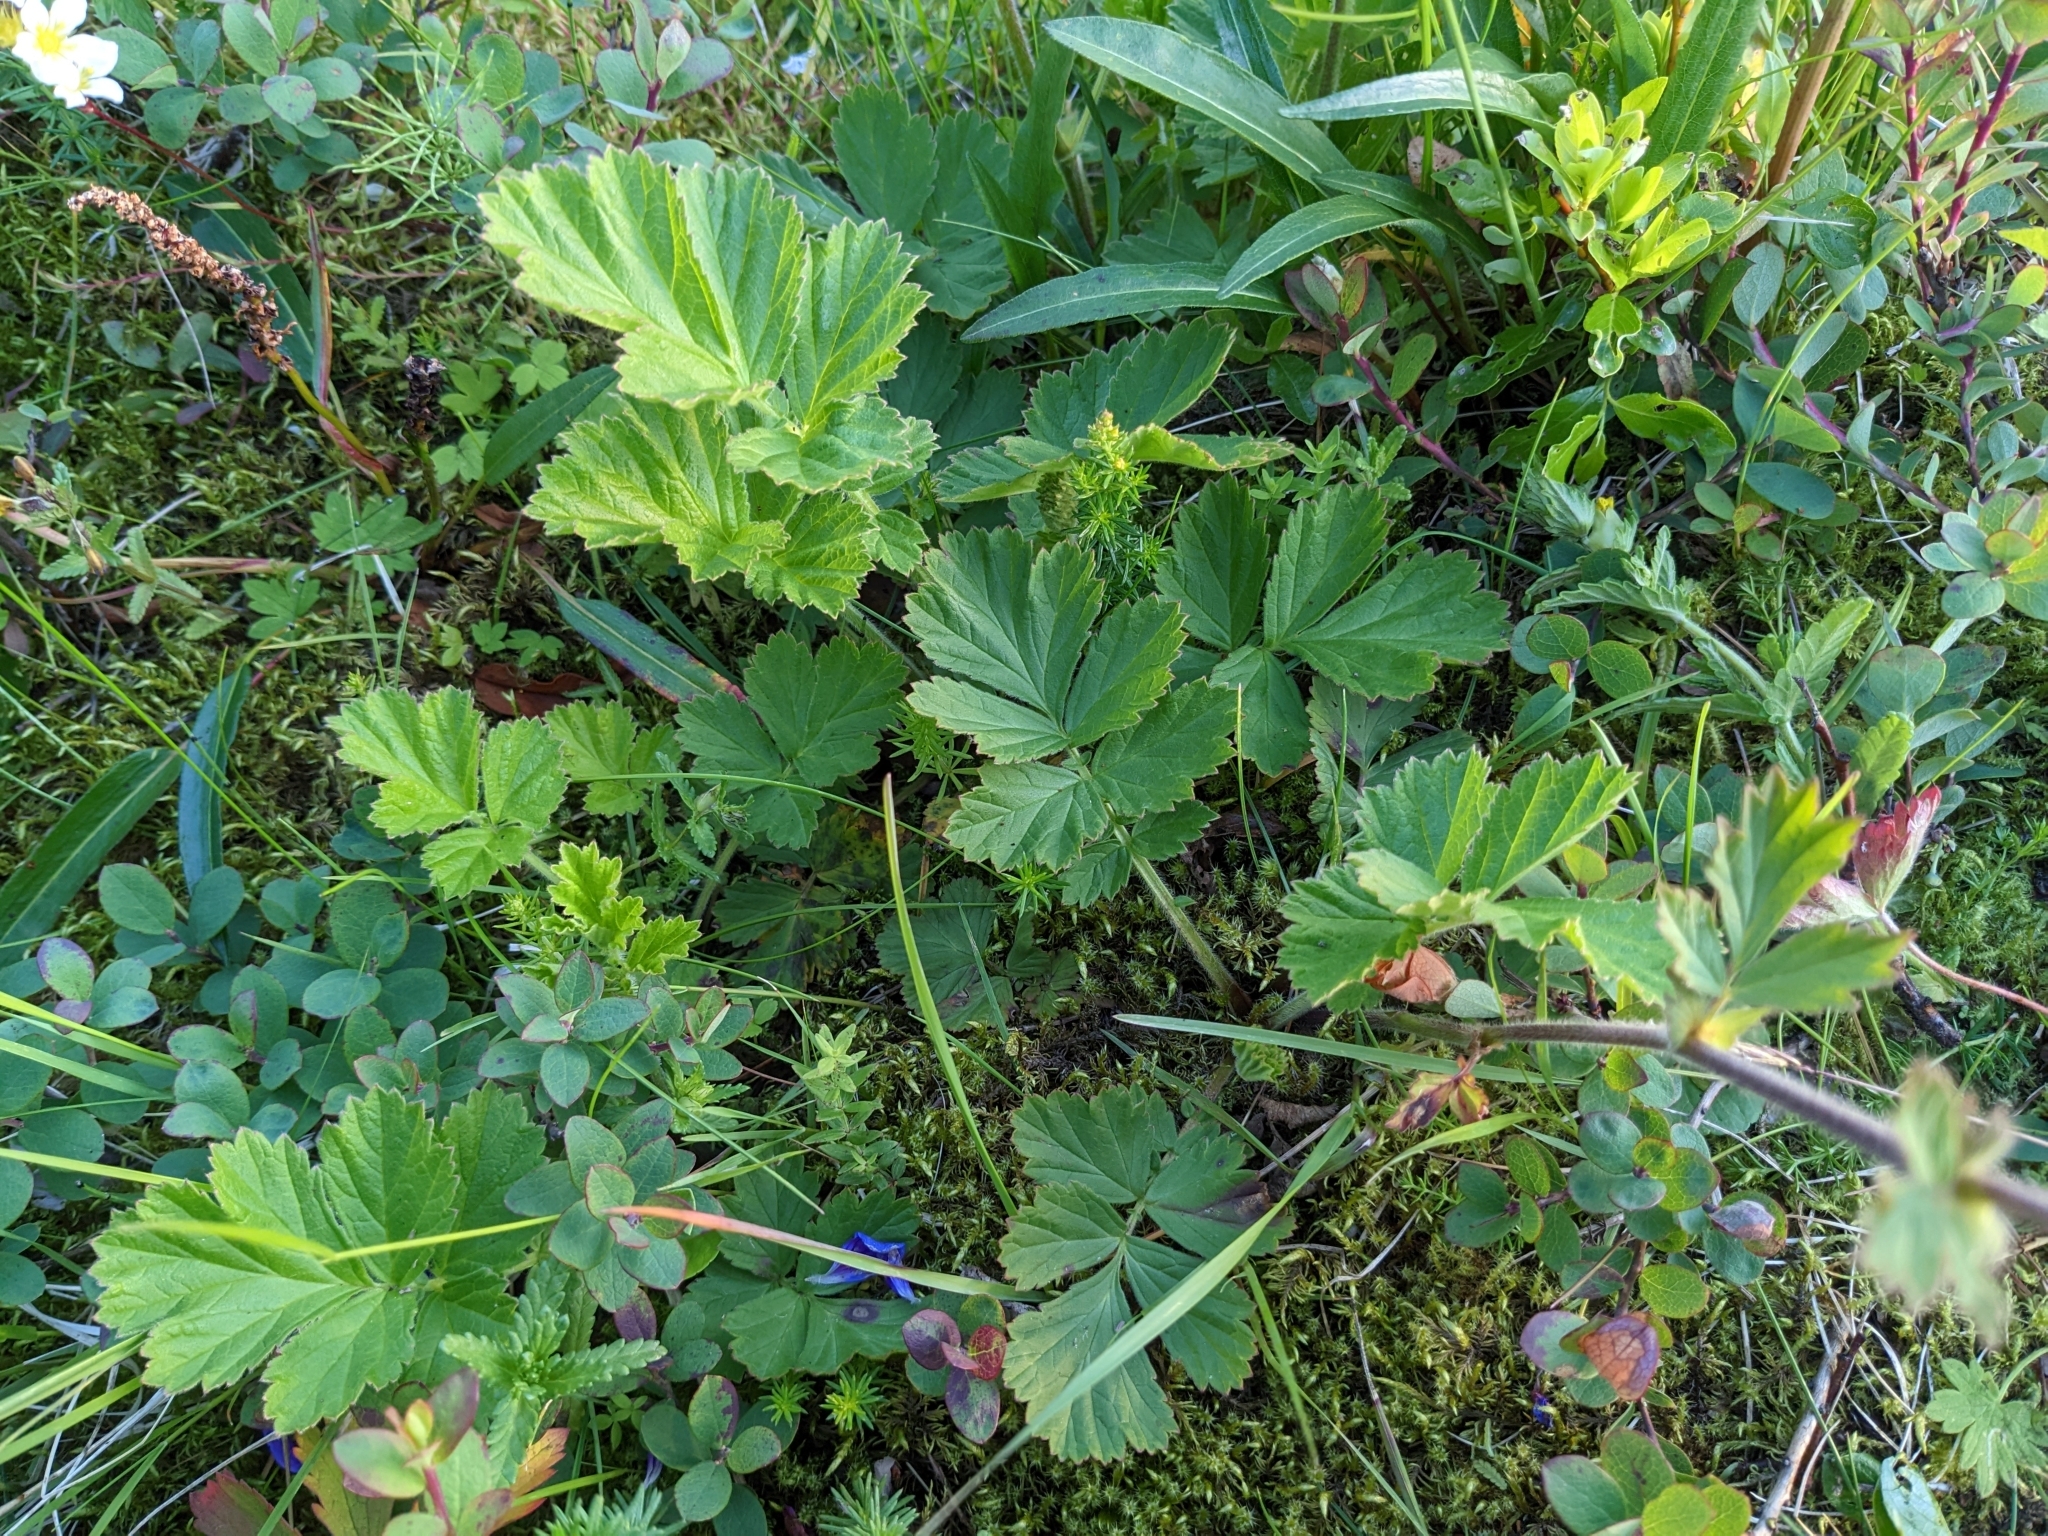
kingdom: Plantae
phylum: Tracheophyta
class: Magnoliopsida
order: Rosales
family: Rosaceae
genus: Geum
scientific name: Geum rivale
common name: Water avens
